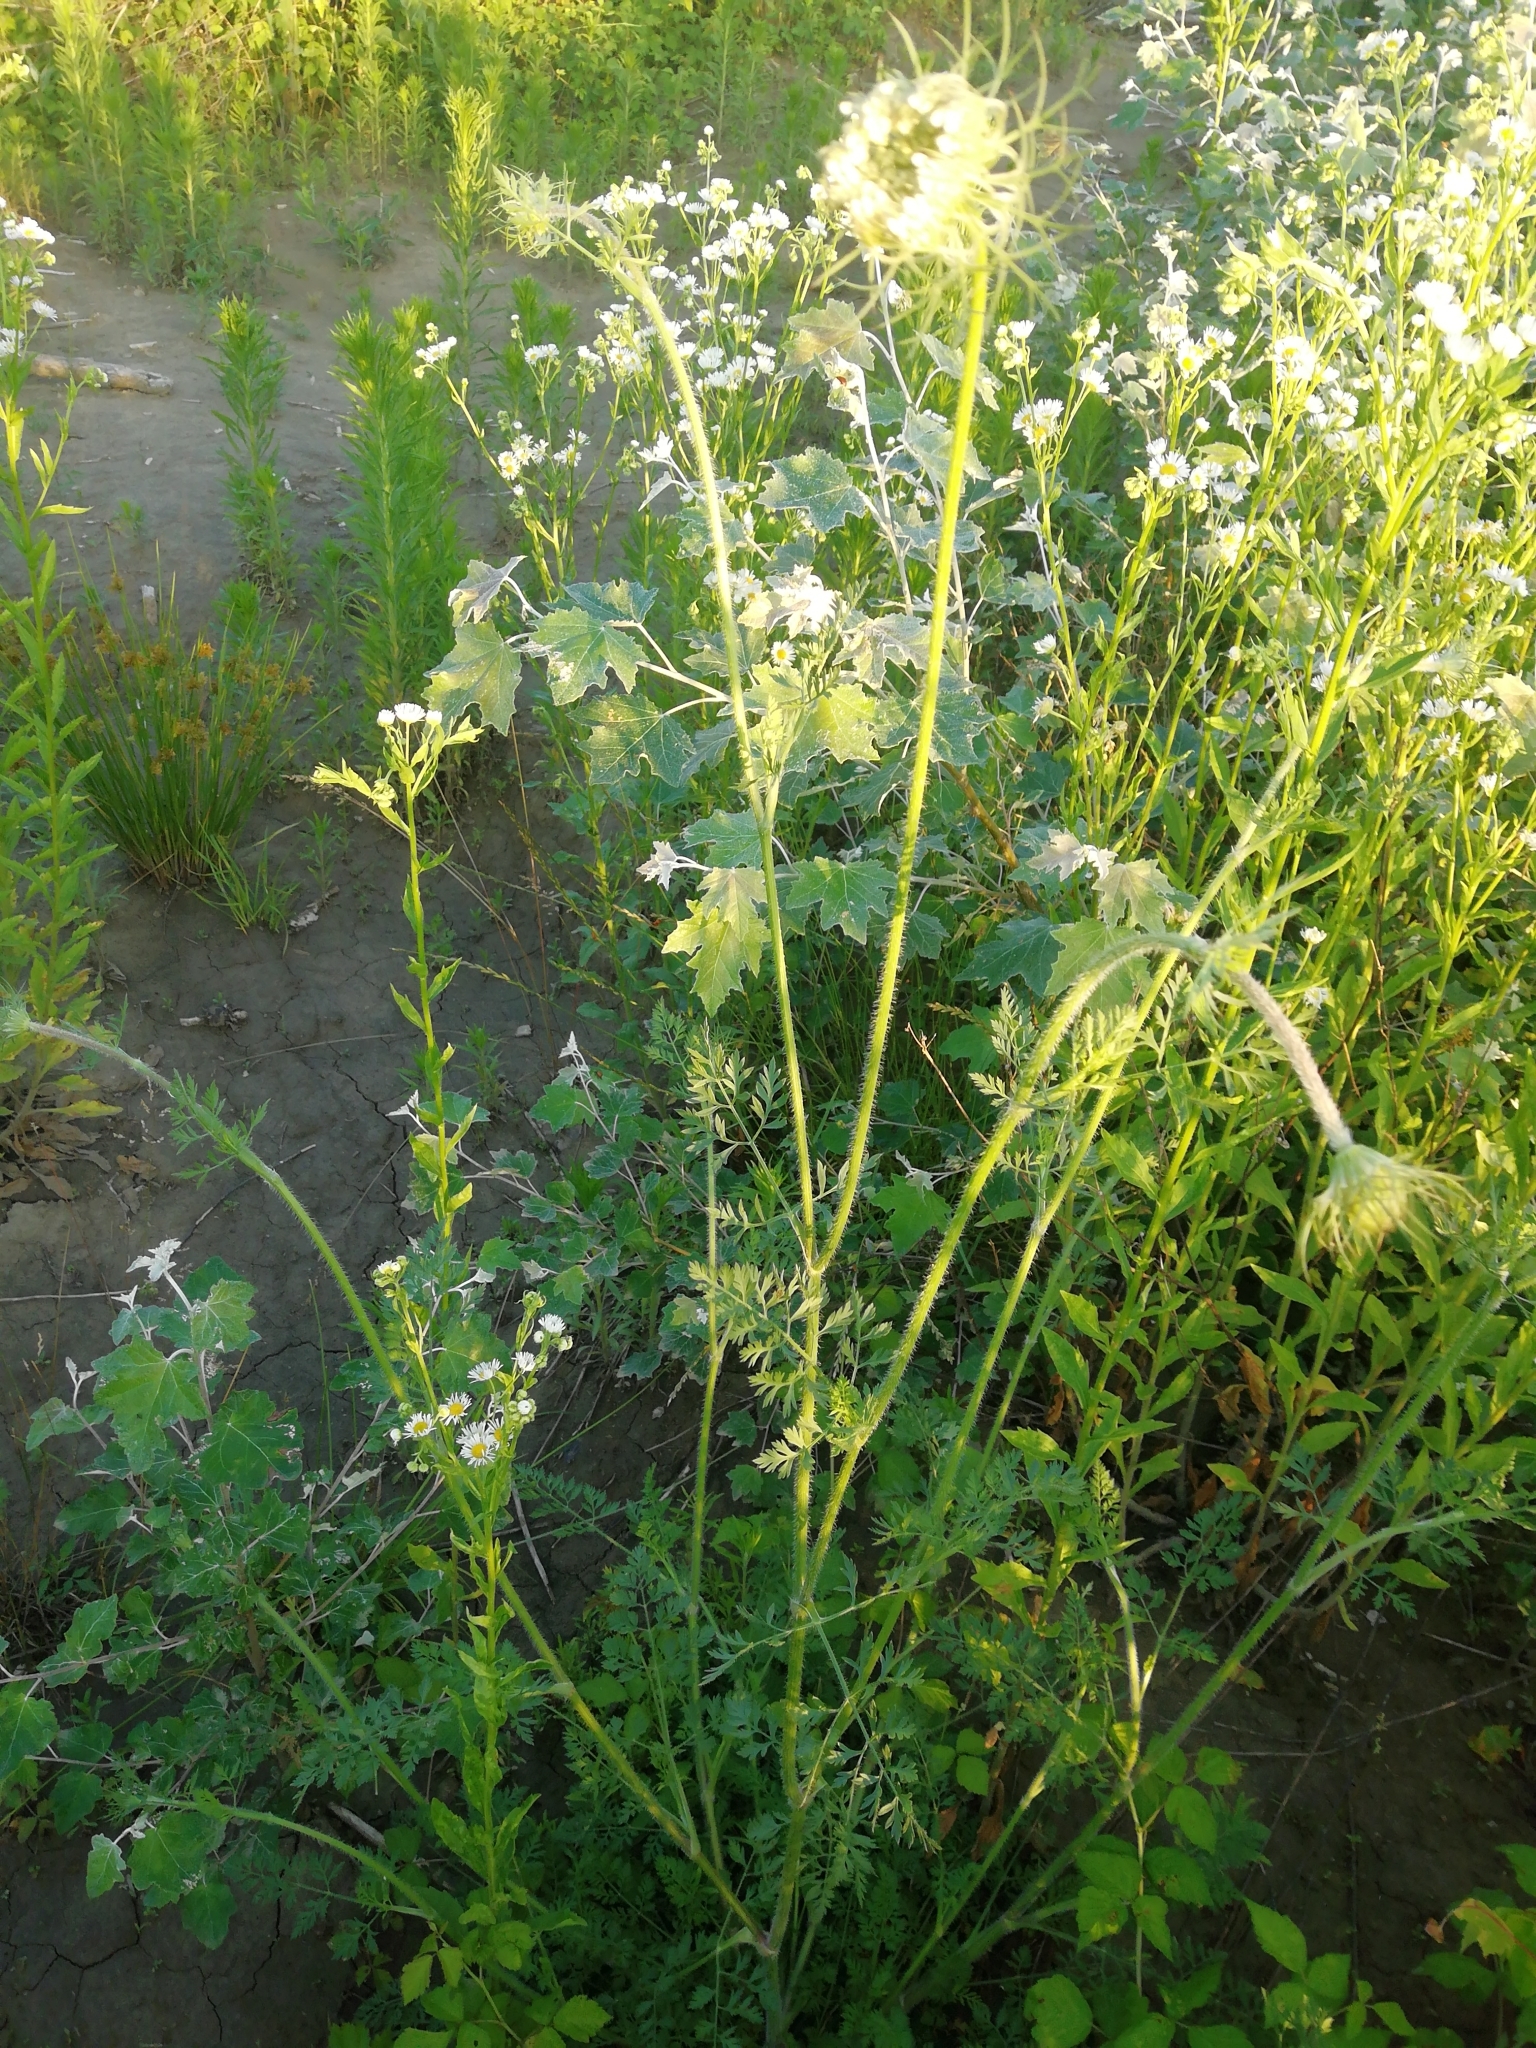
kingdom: Plantae
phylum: Tracheophyta
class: Magnoliopsida
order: Apiales
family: Apiaceae
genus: Daucus
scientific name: Daucus carota
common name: Wild carrot
